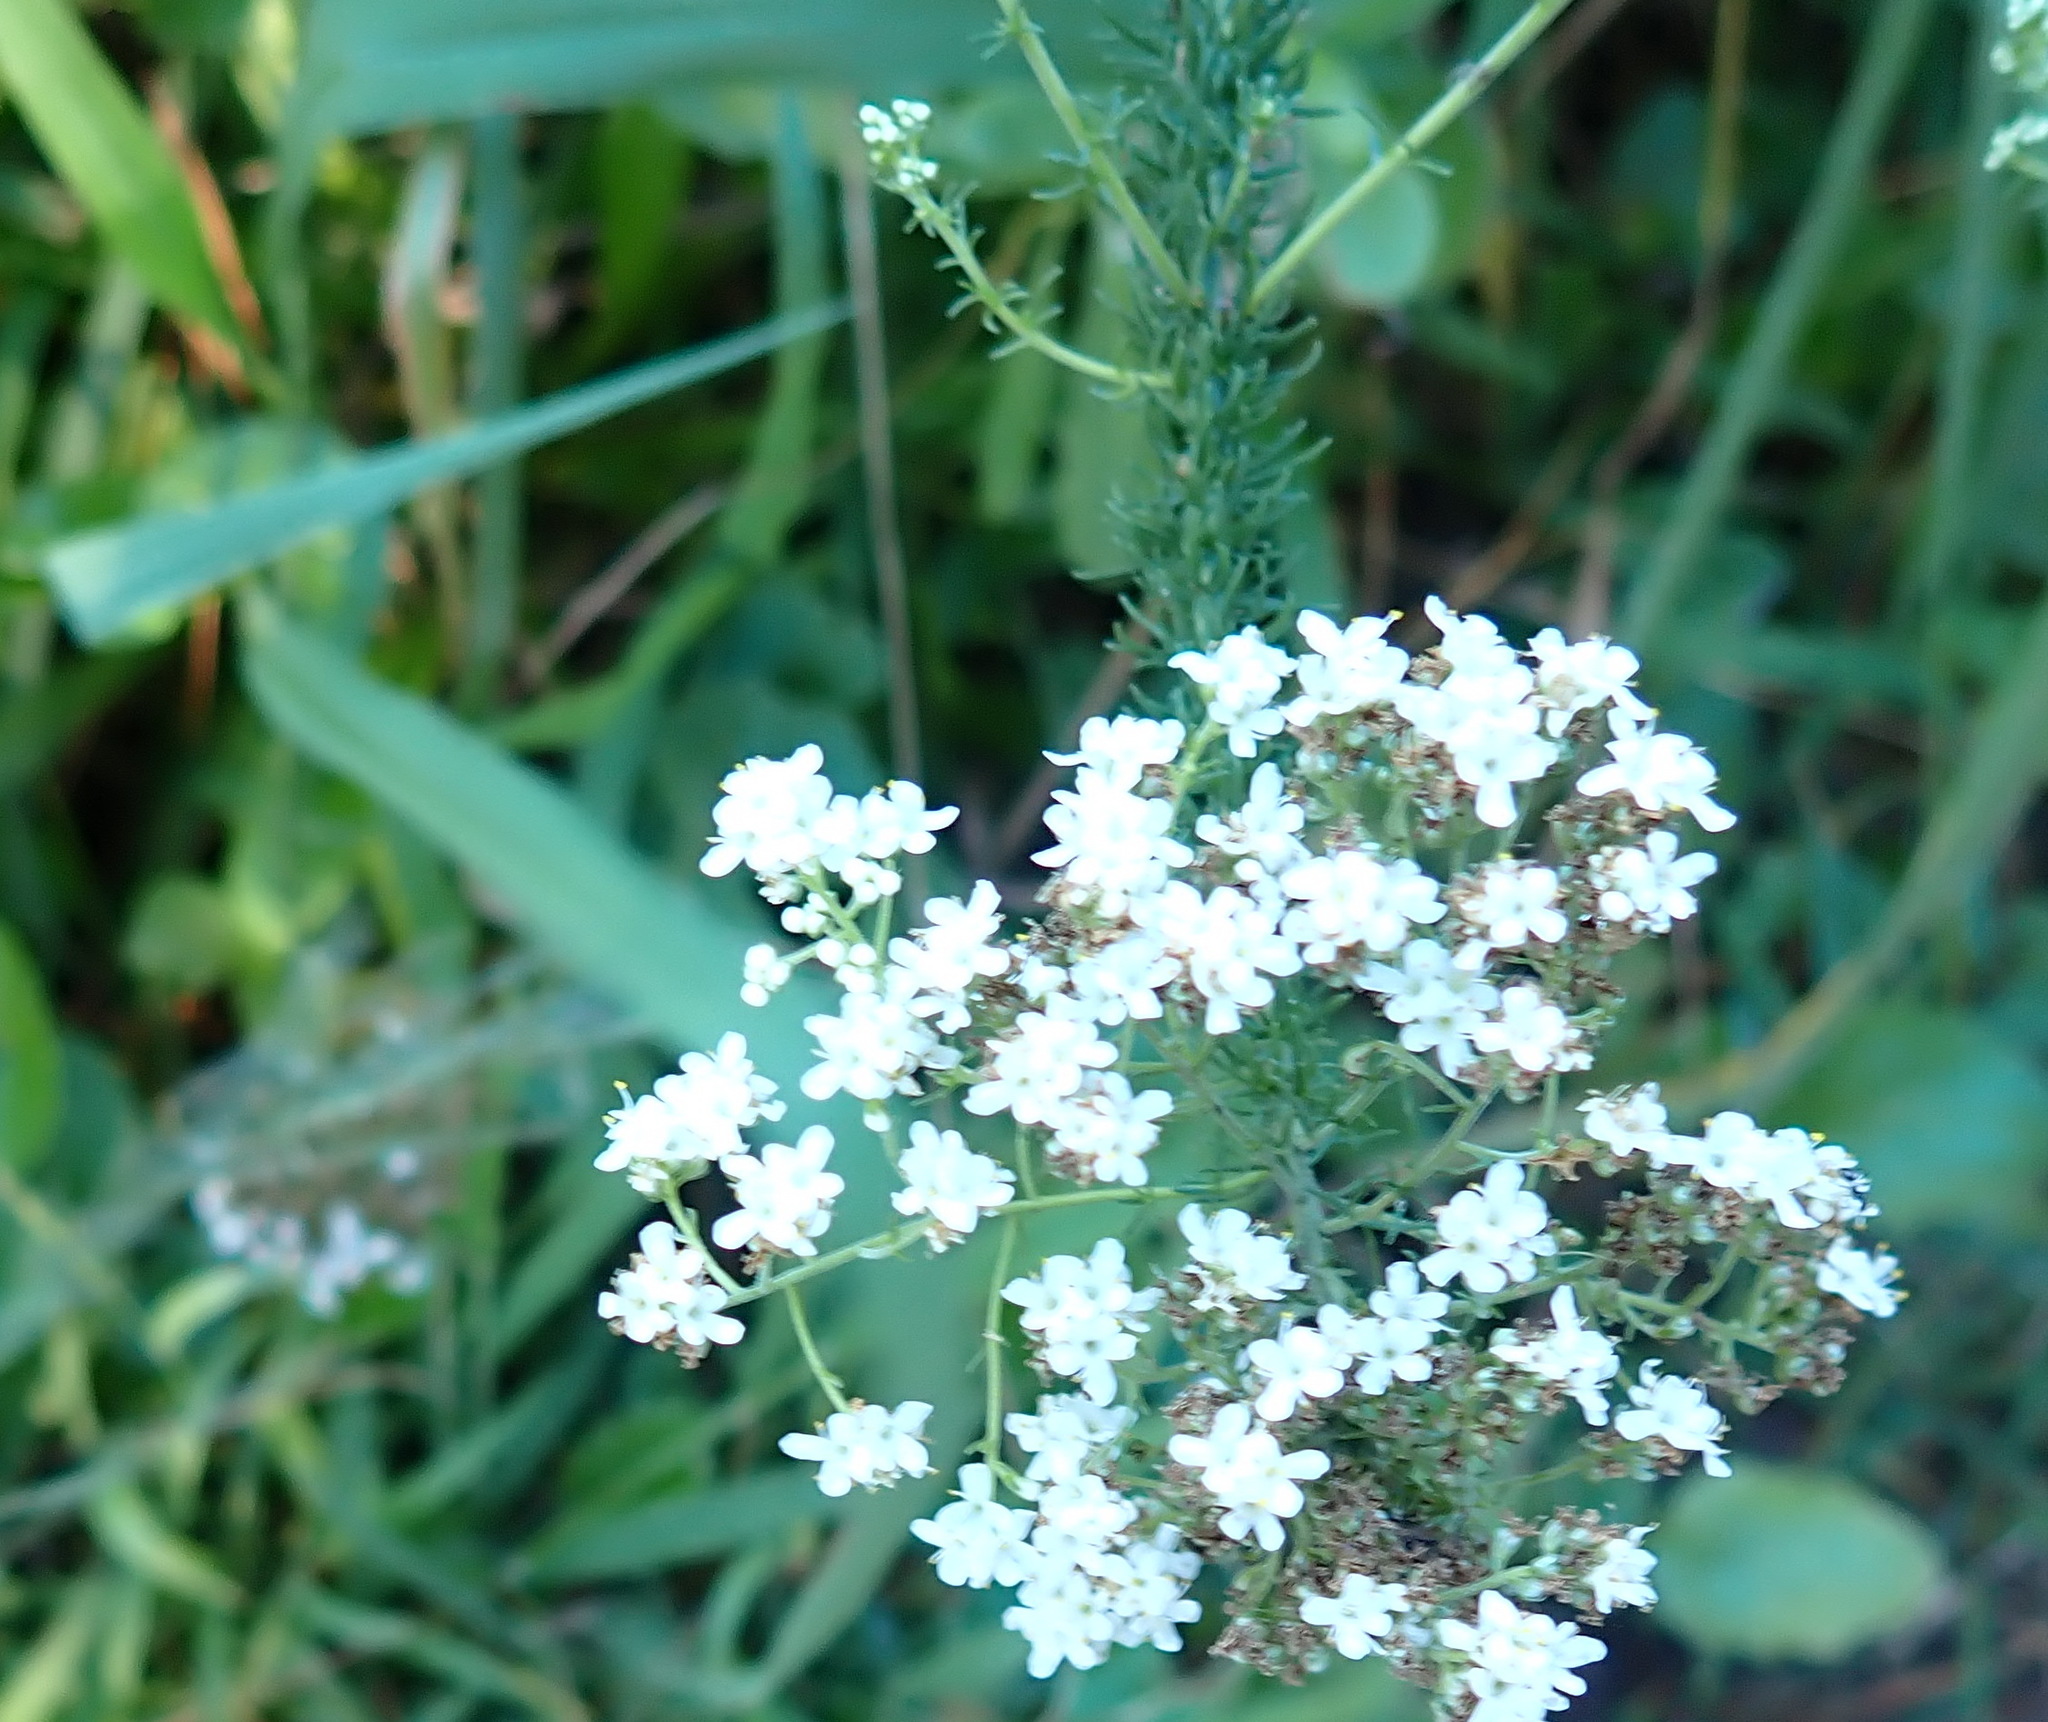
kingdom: Plantae
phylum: Tracheophyta
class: Magnoliopsida
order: Lamiales
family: Scrophulariaceae
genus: Selago
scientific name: Selago corymbosa
